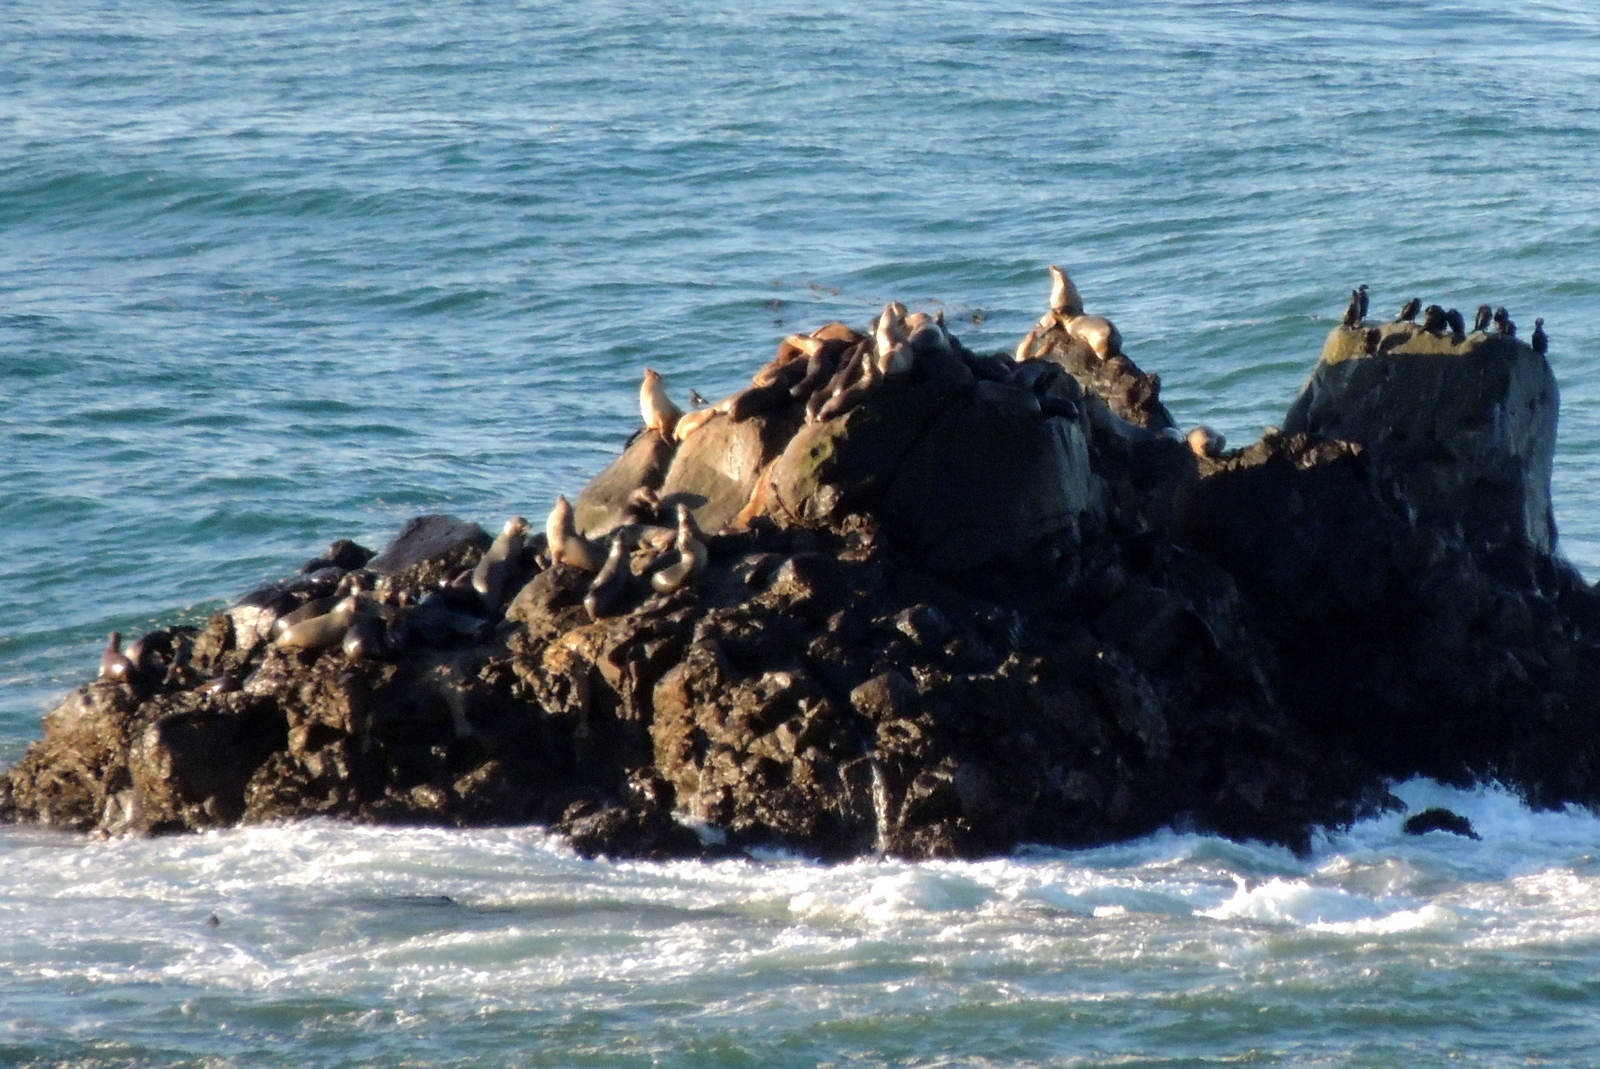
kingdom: Animalia
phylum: Chordata
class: Mammalia
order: Carnivora
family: Otariidae
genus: Zalophus
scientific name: Zalophus californianus
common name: California sea lion
